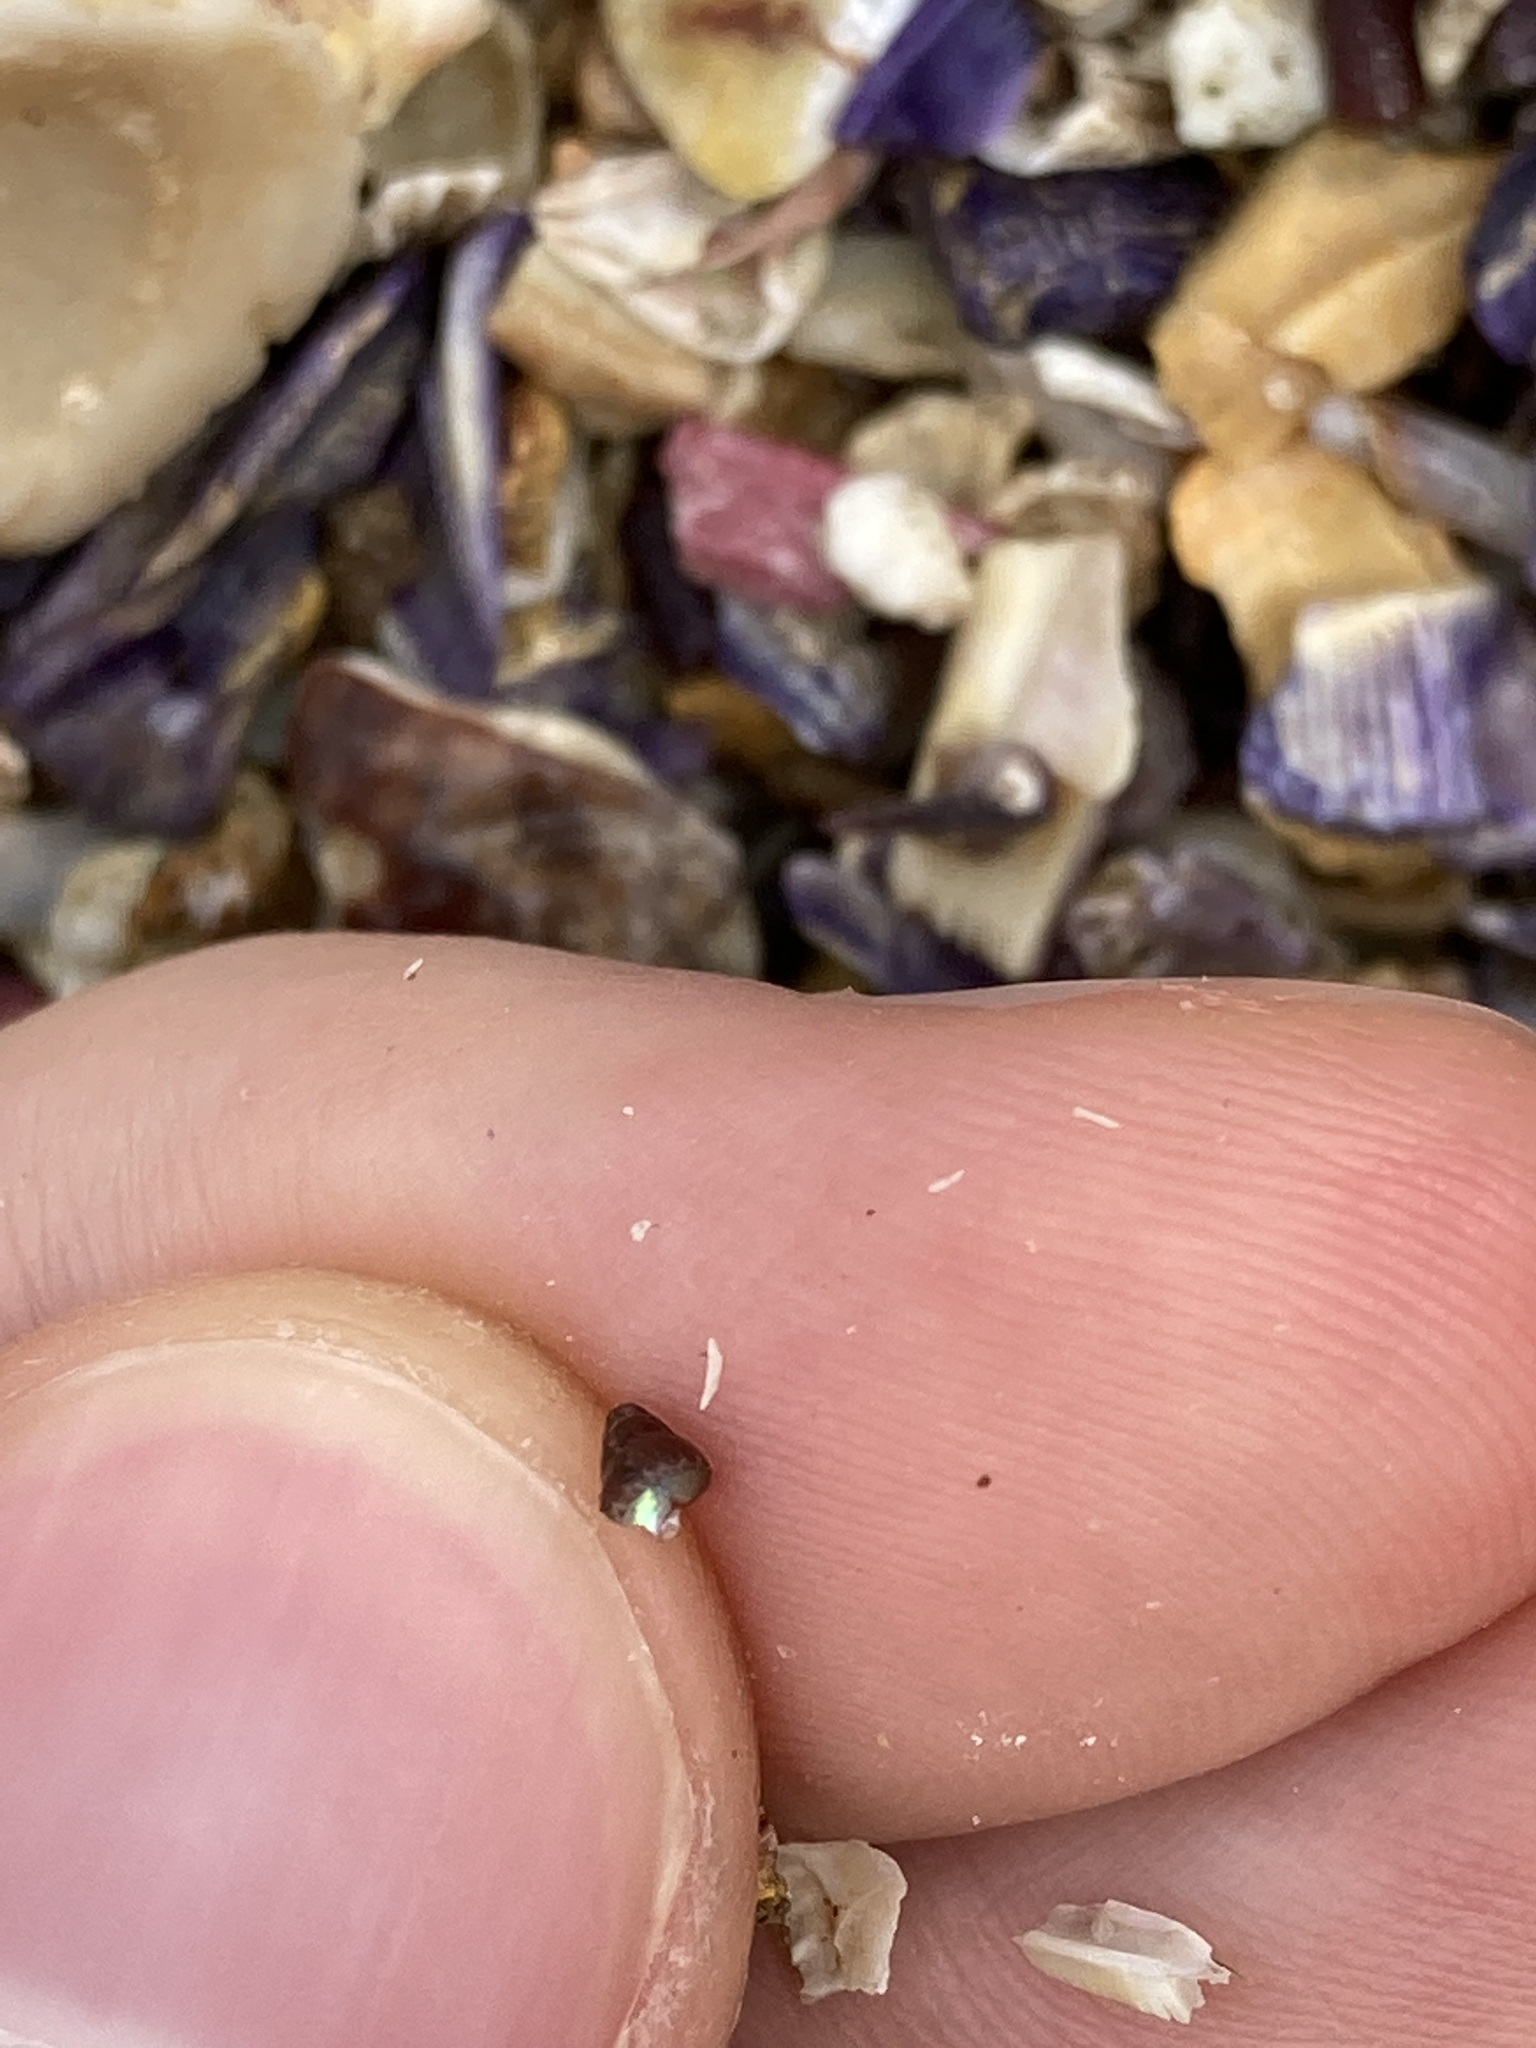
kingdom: Animalia
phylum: Mollusca
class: Gastropoda
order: Trochida
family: Trochidae
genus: Phasianotrochus
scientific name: Phasianotrochus eximius
